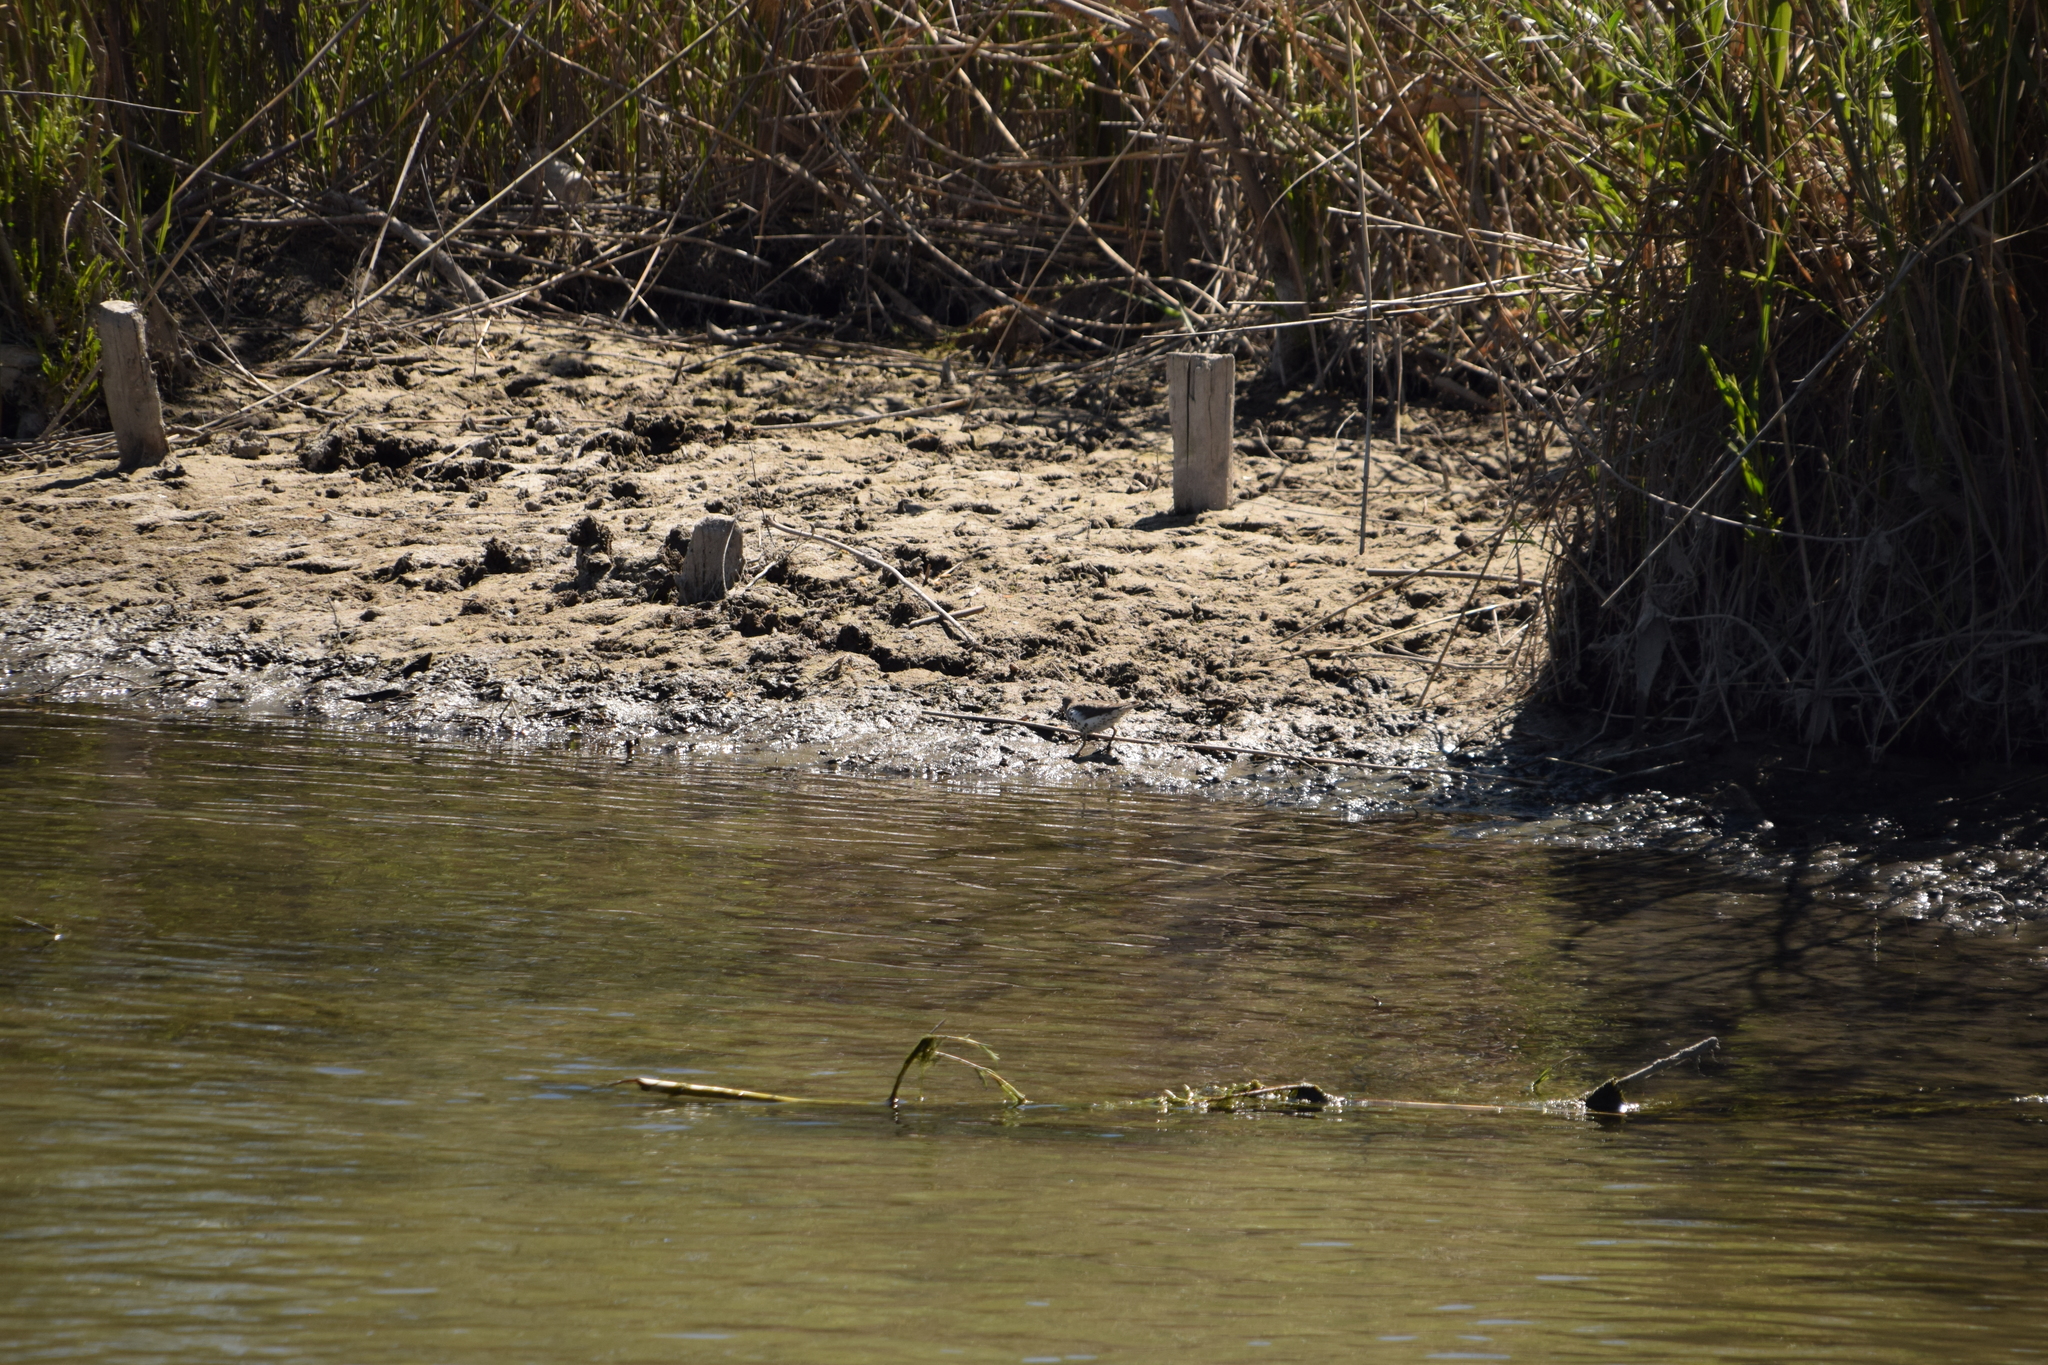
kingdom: Animalia
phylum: Chordata
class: Aves
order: Charadriiformes
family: Scolopacidae
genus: Actitis
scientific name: Actitis macularius
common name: Spotted sandpiper
